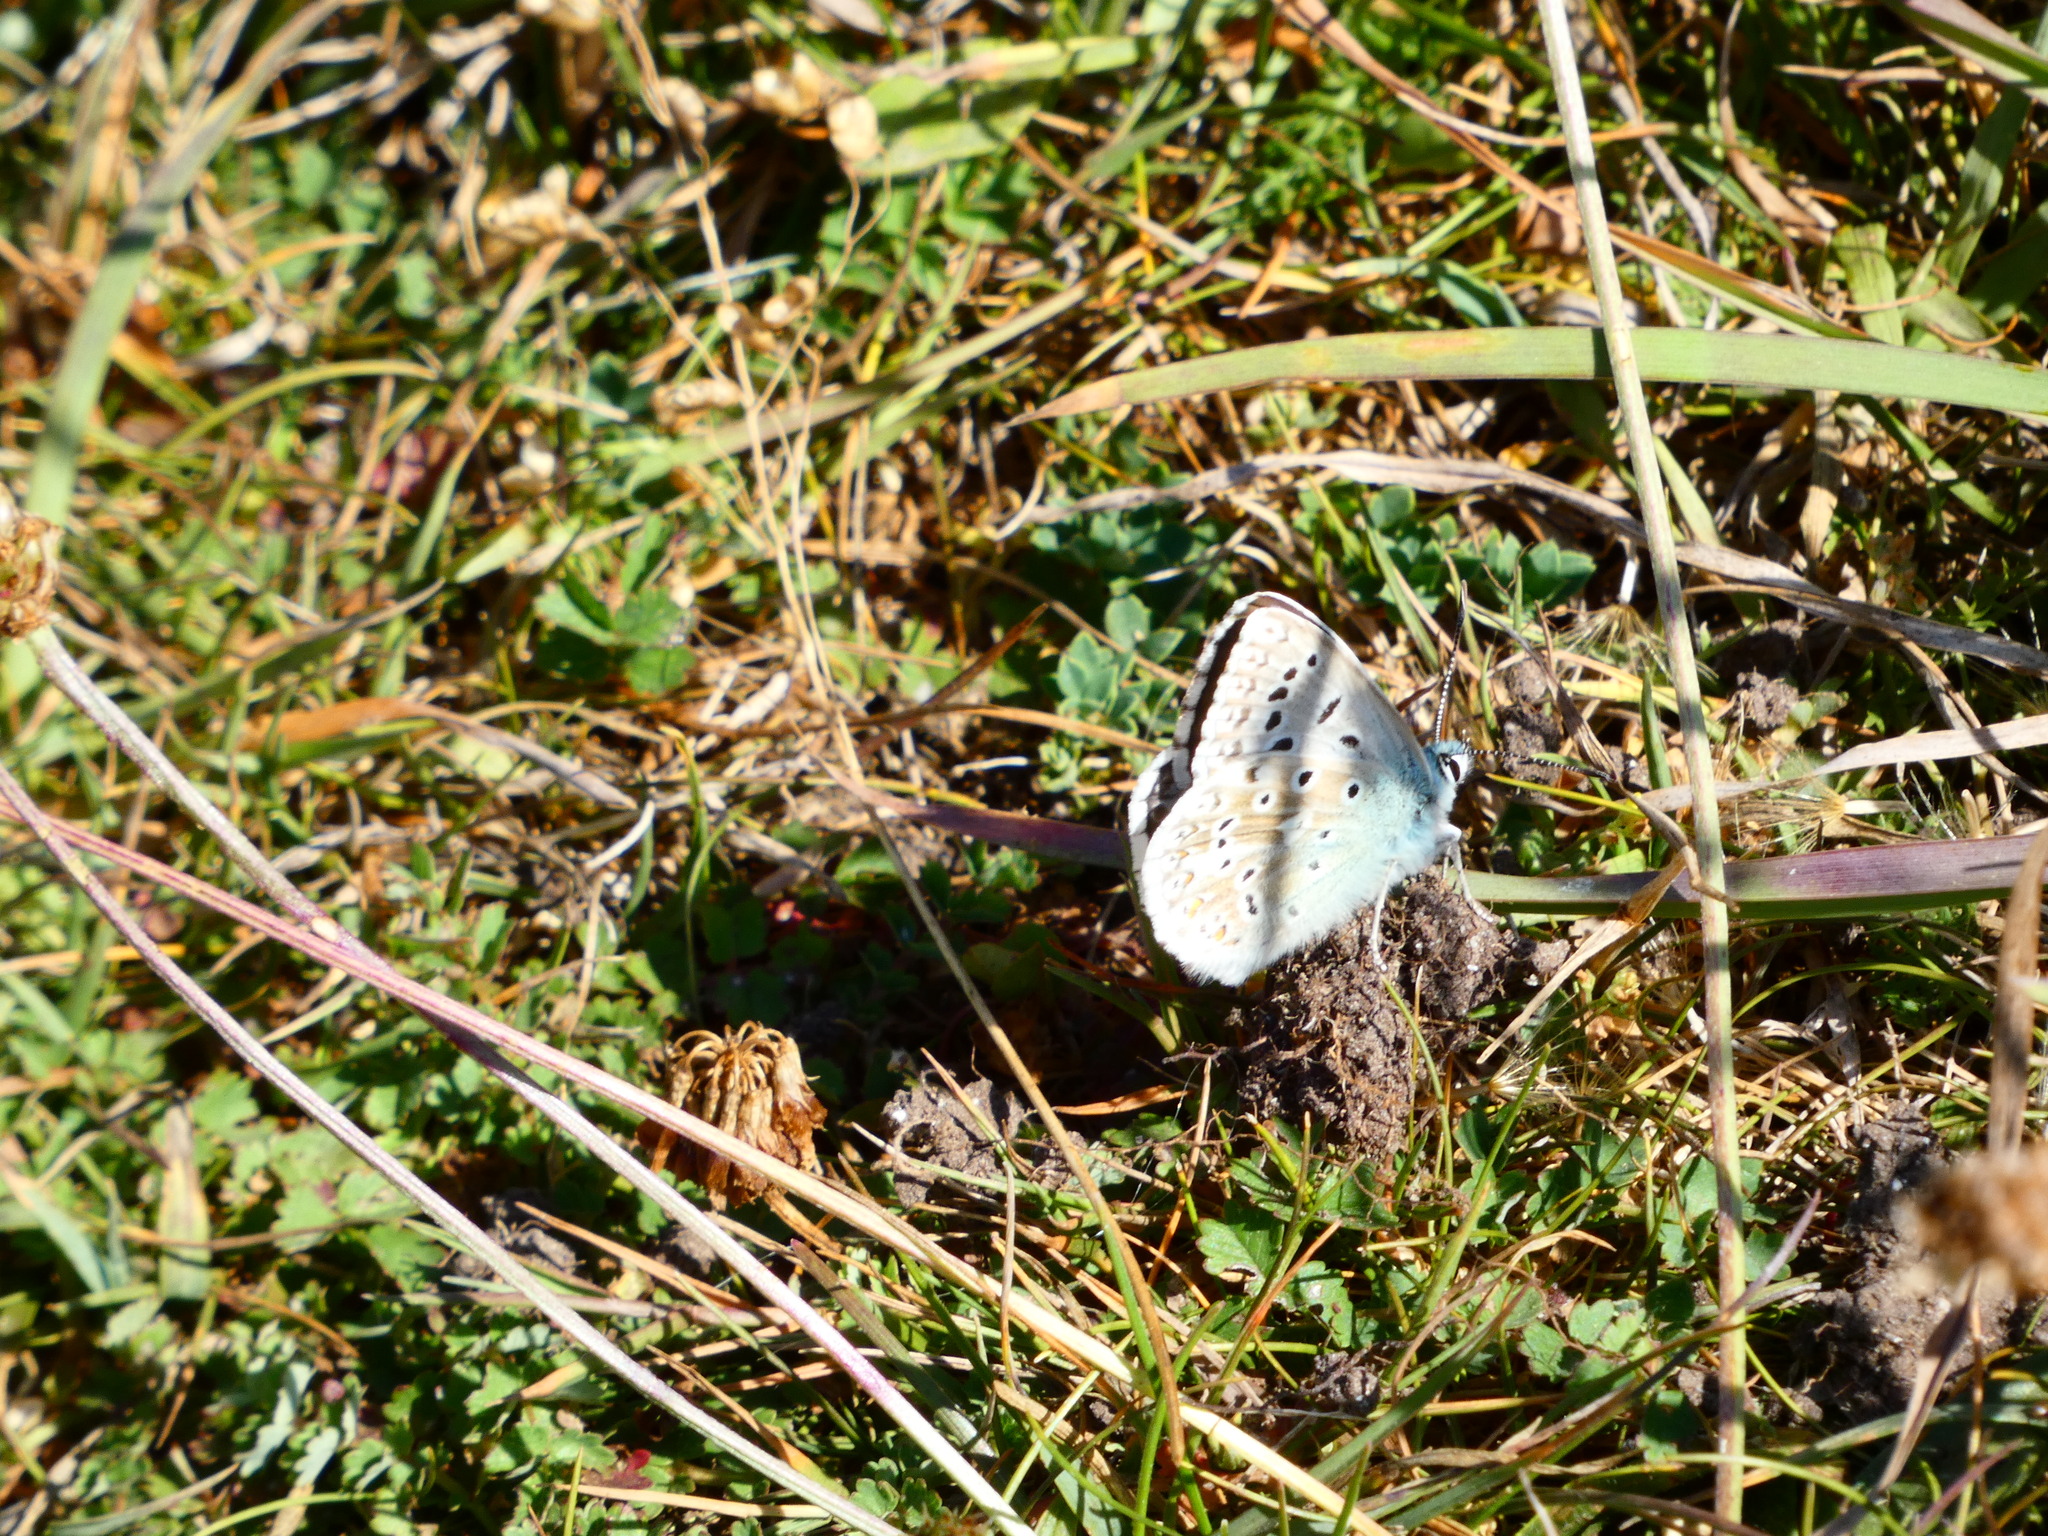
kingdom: Animalia
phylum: Arthropoda
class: Insecta
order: Lepidoptera
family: Lycaenidae
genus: Lysandra
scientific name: Lysandra coridon
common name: Chalkhill blue
